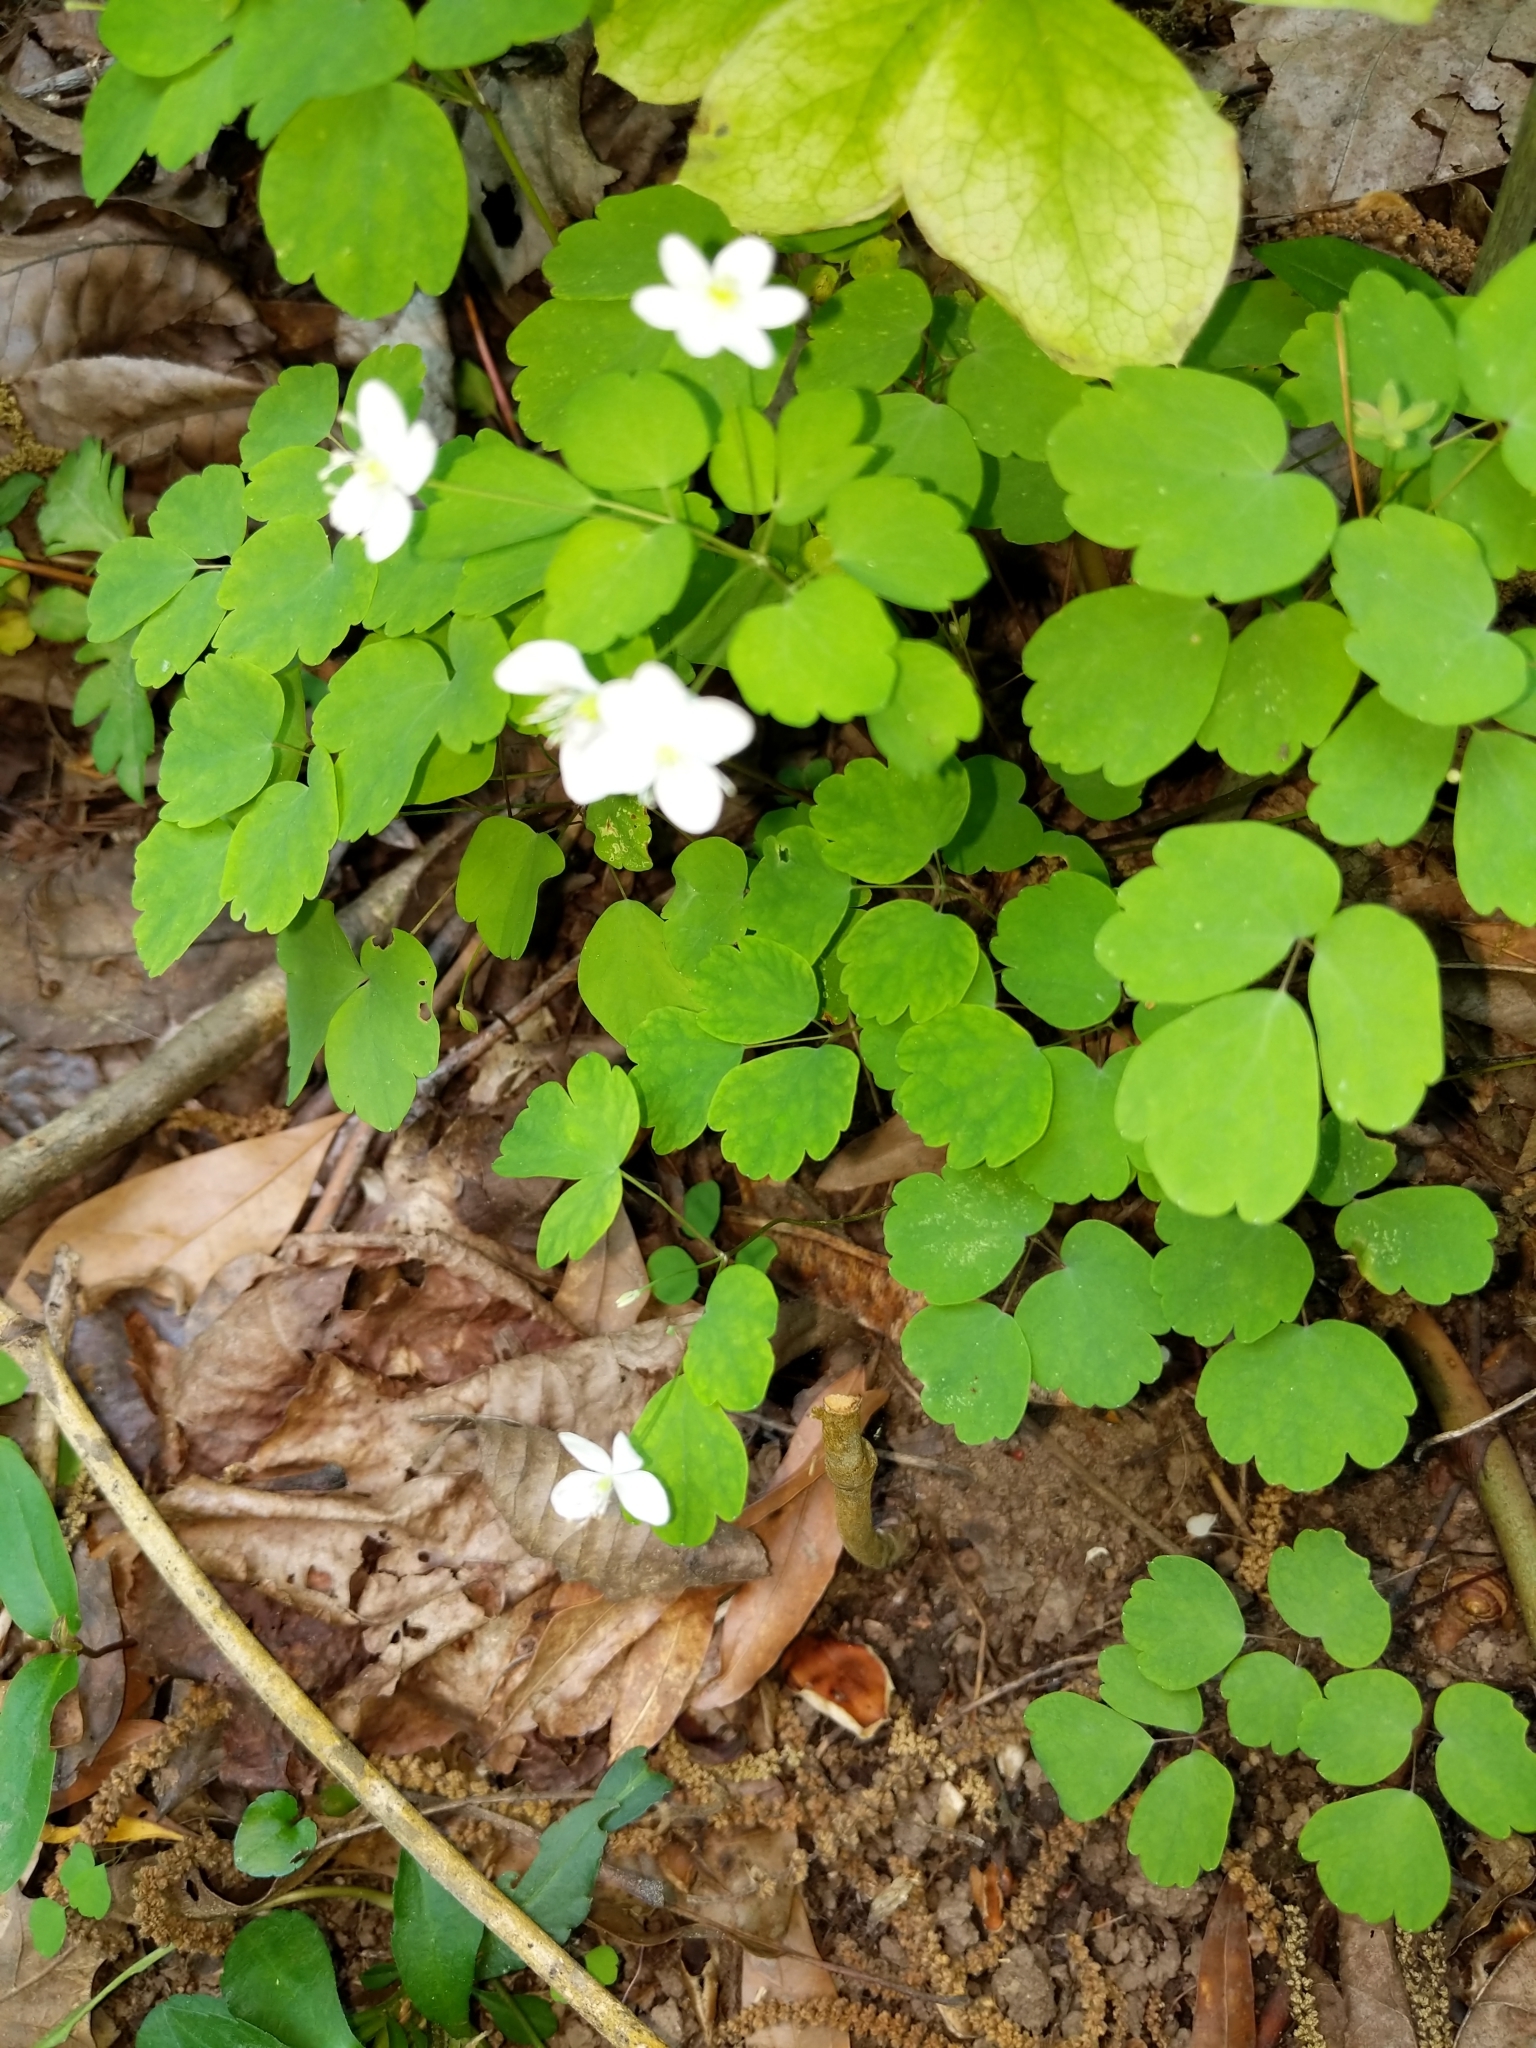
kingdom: Plantae
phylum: Tracheophyta
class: Magnoliopsida
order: Ranunculales
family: Ranunculaceae
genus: Thalictrum
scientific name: Thalictrum thalictroides
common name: Rue-anemone
